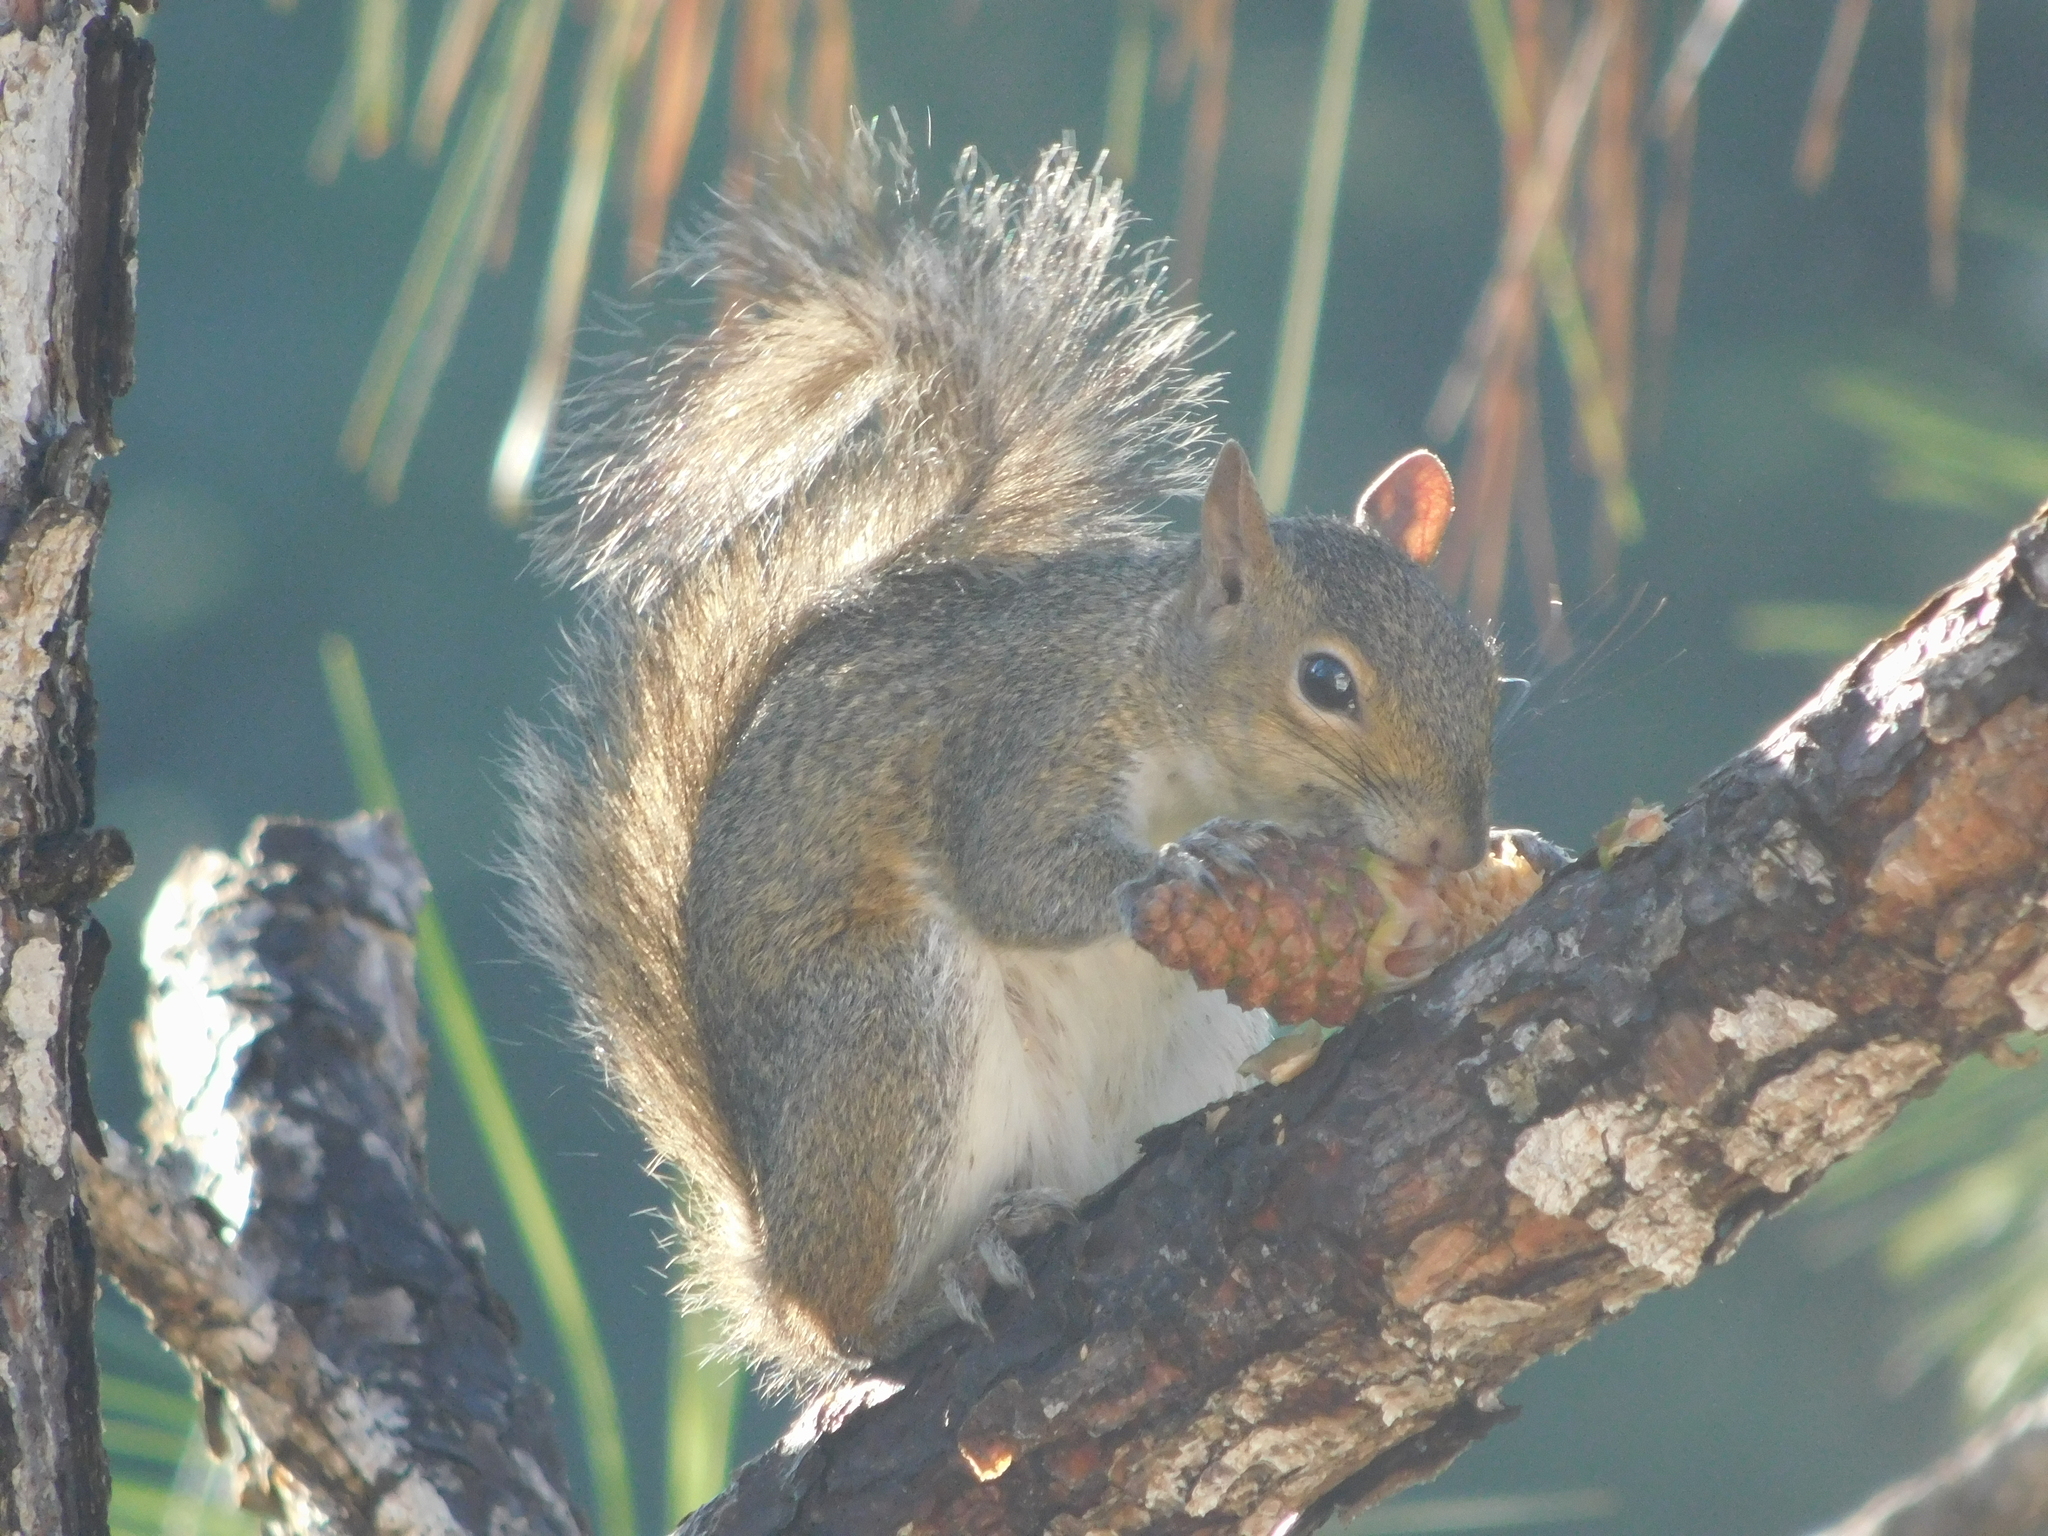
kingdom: Animalia
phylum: Chordata
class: Mammalia
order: Rodentia
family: Sciuridae
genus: Sciurus
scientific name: Sciurus carolinensis
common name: Eastern gray squirrel
